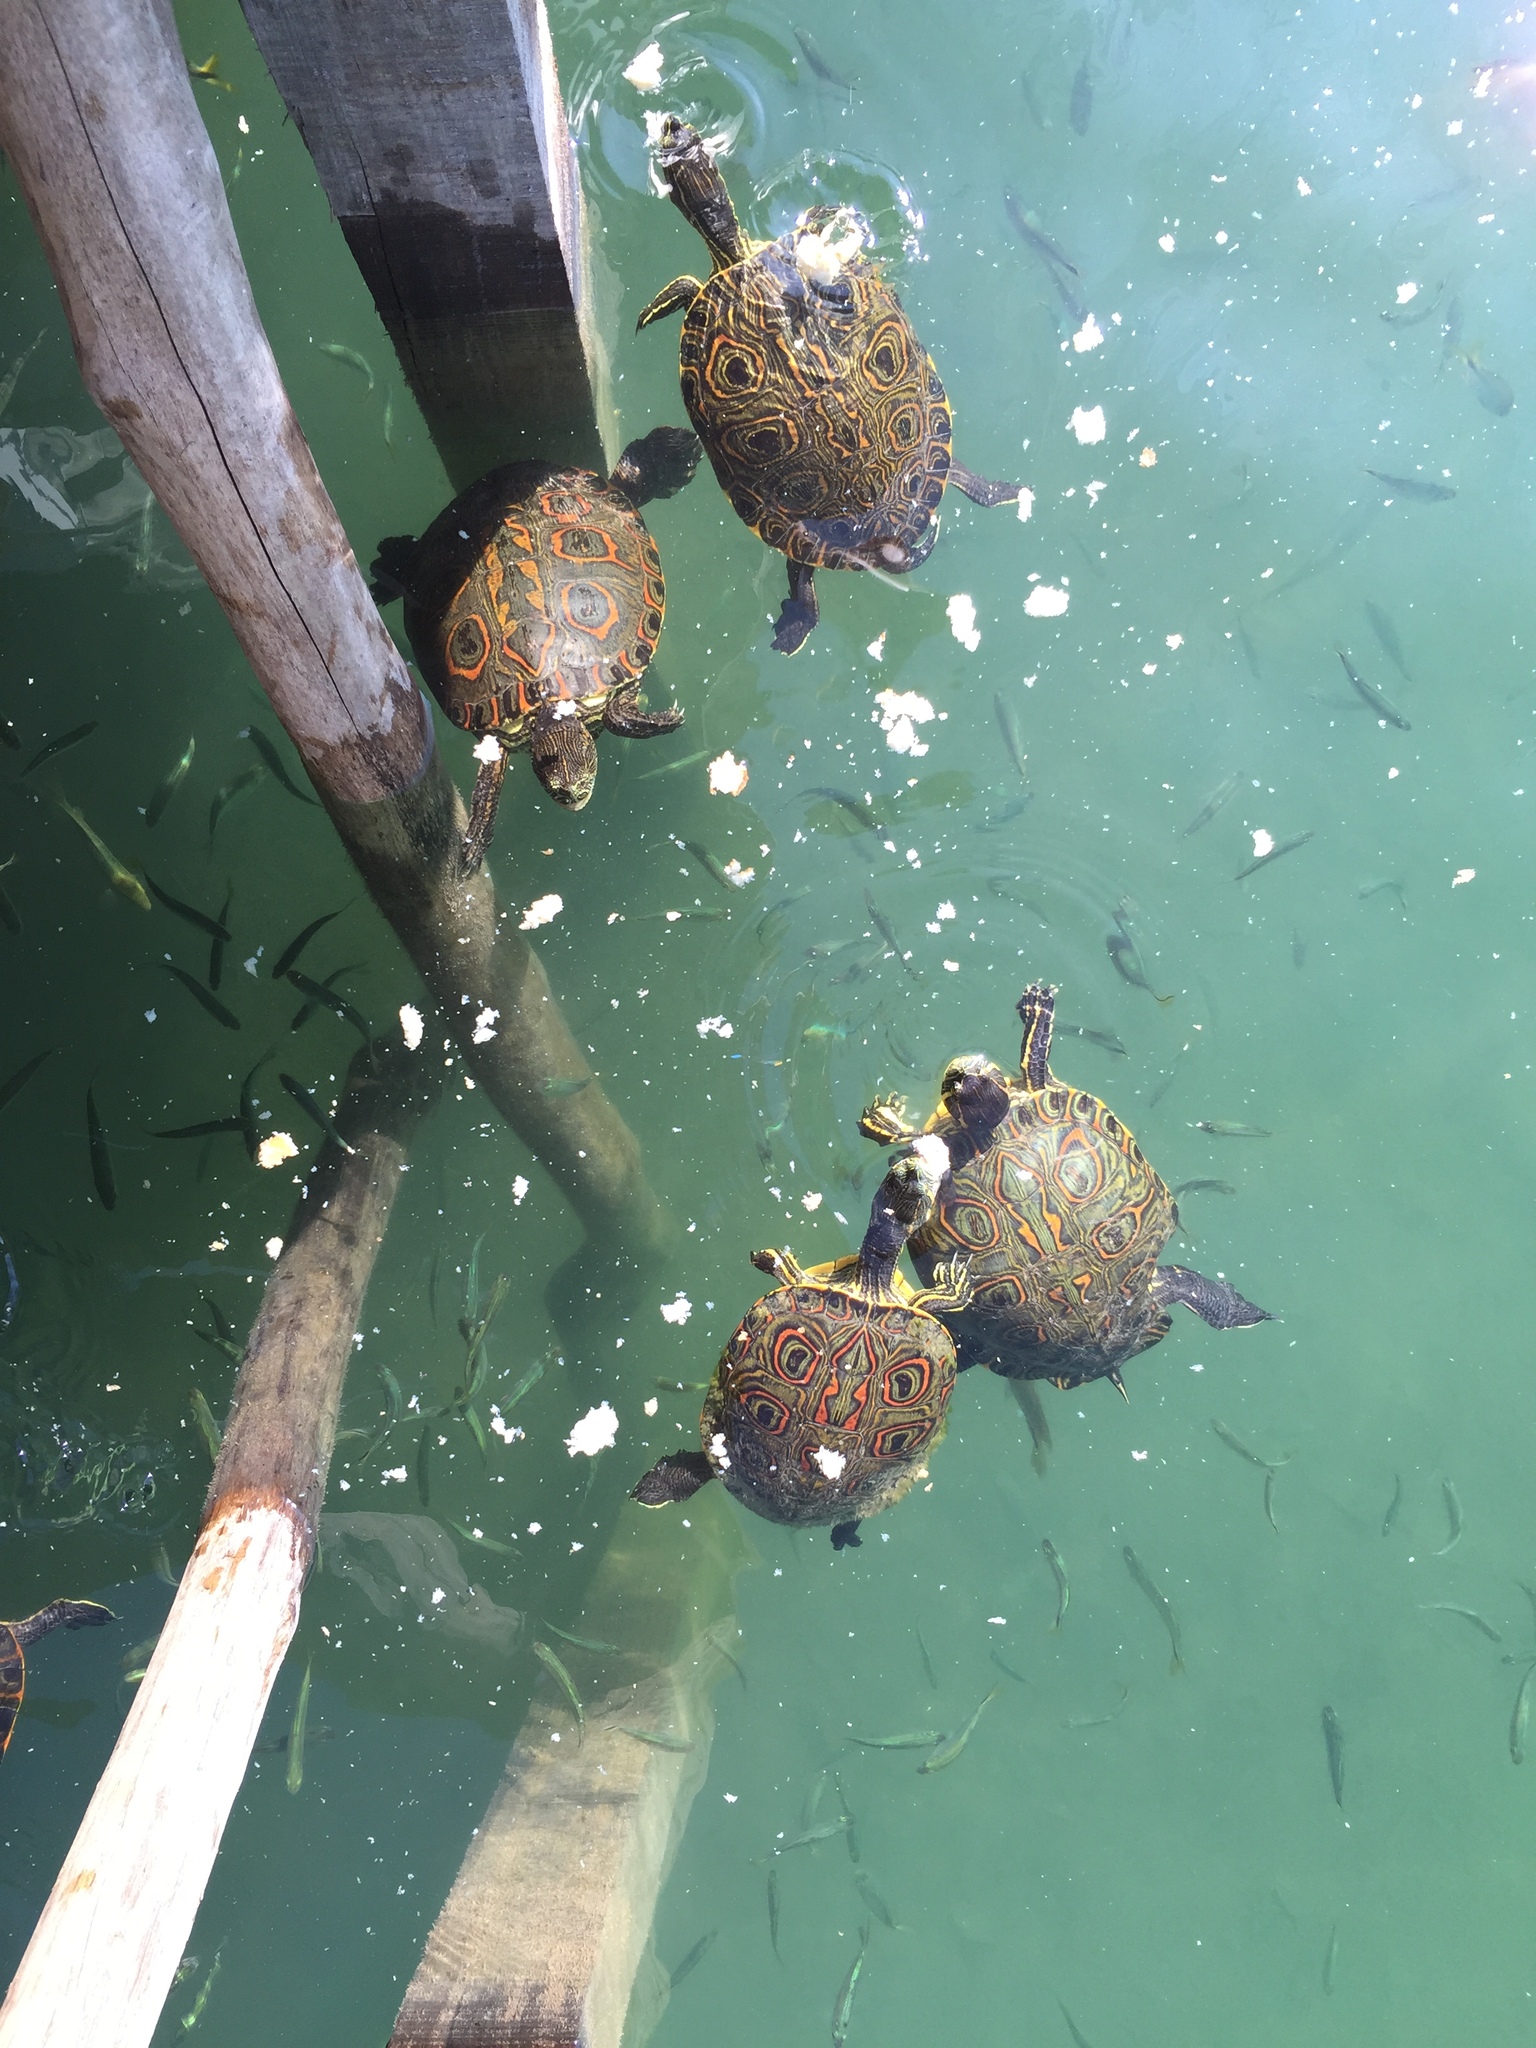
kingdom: Animalia
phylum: Chordata
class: Testudines
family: Emydidae
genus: Trachemys
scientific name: Trachemys venusta
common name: Mesoamerican slider
